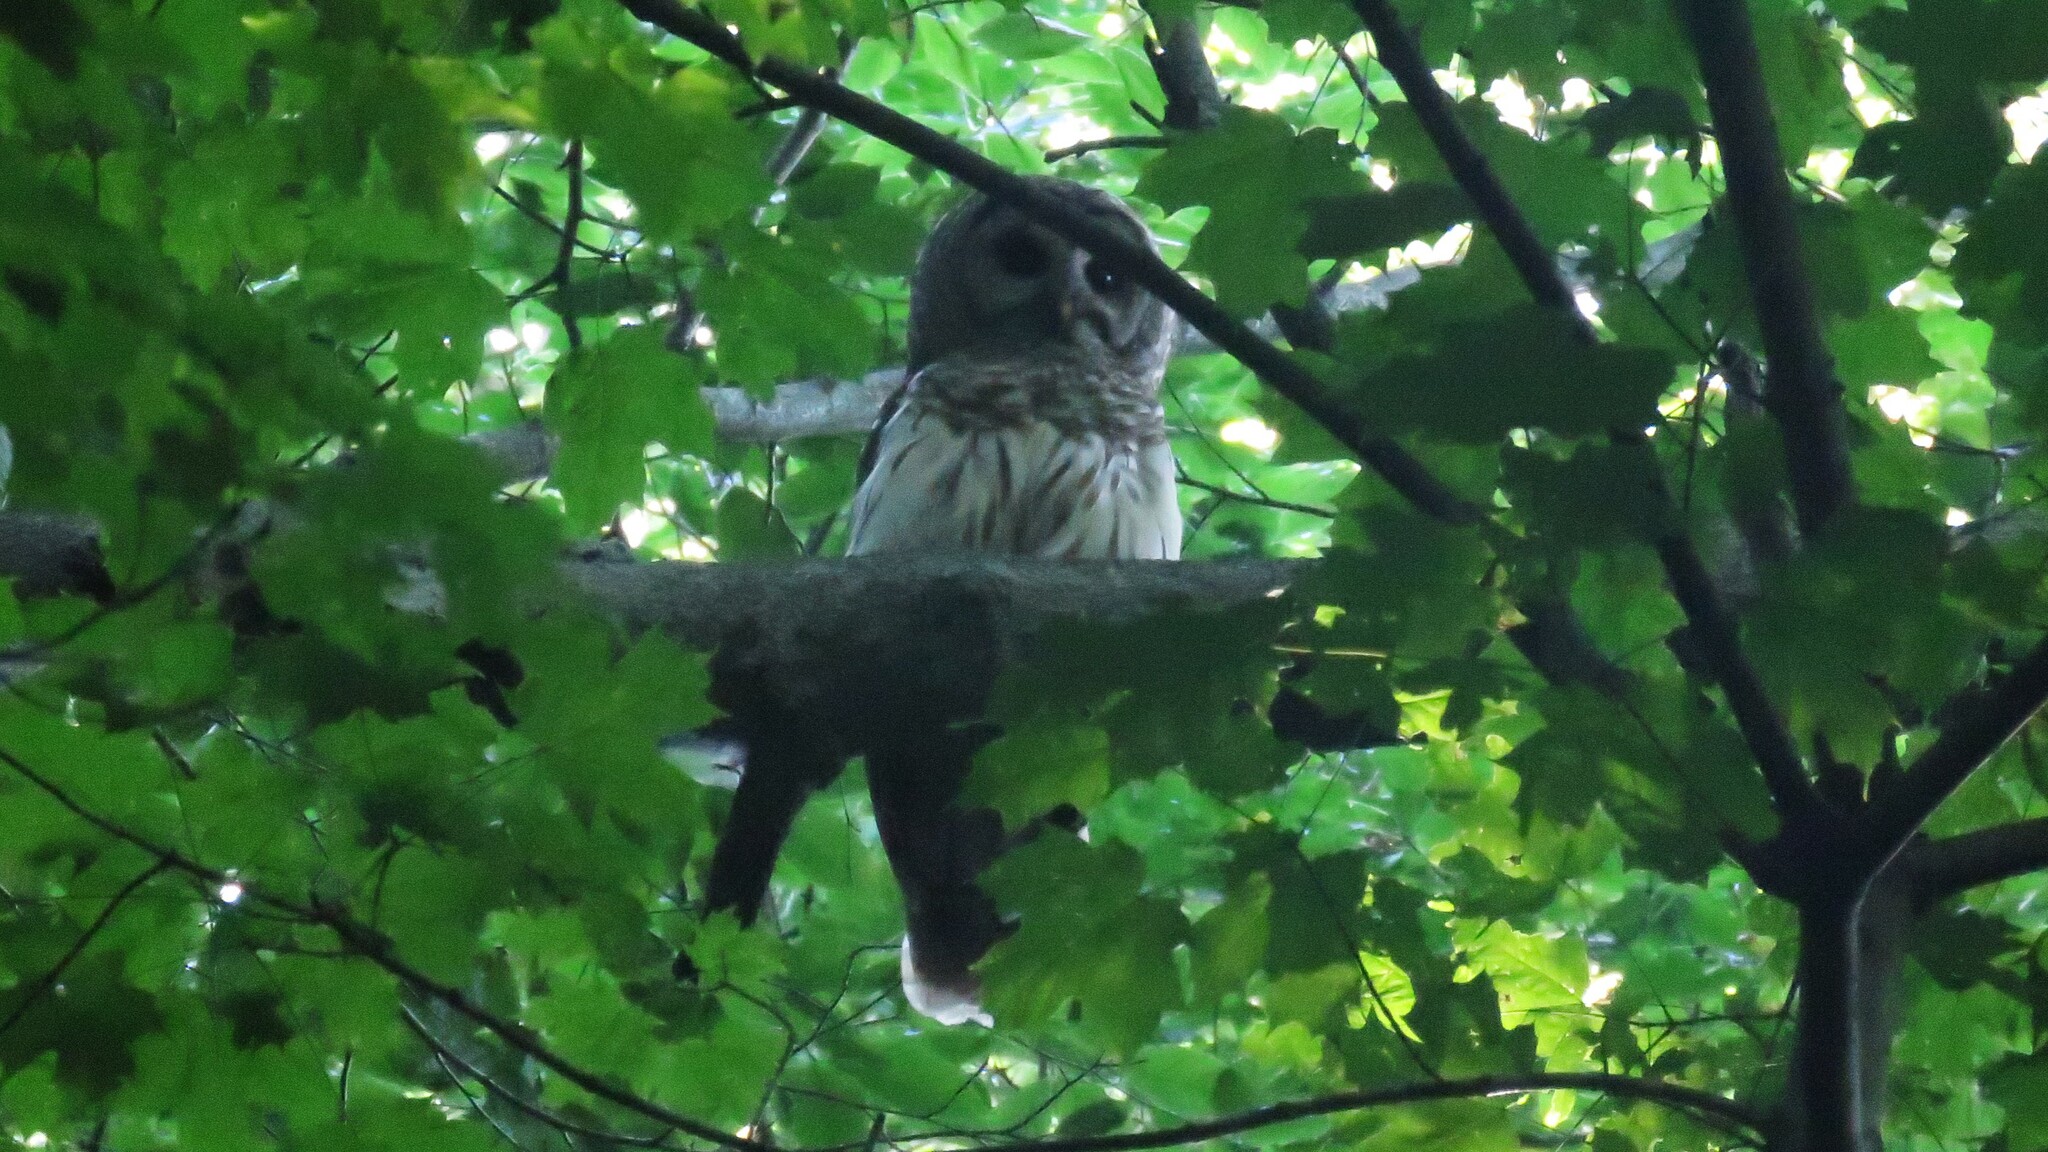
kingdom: Animalia
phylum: Chordata
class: Aves
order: Strigiformes
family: Strigidae
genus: Strix
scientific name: Strix varia
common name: Barred owl
